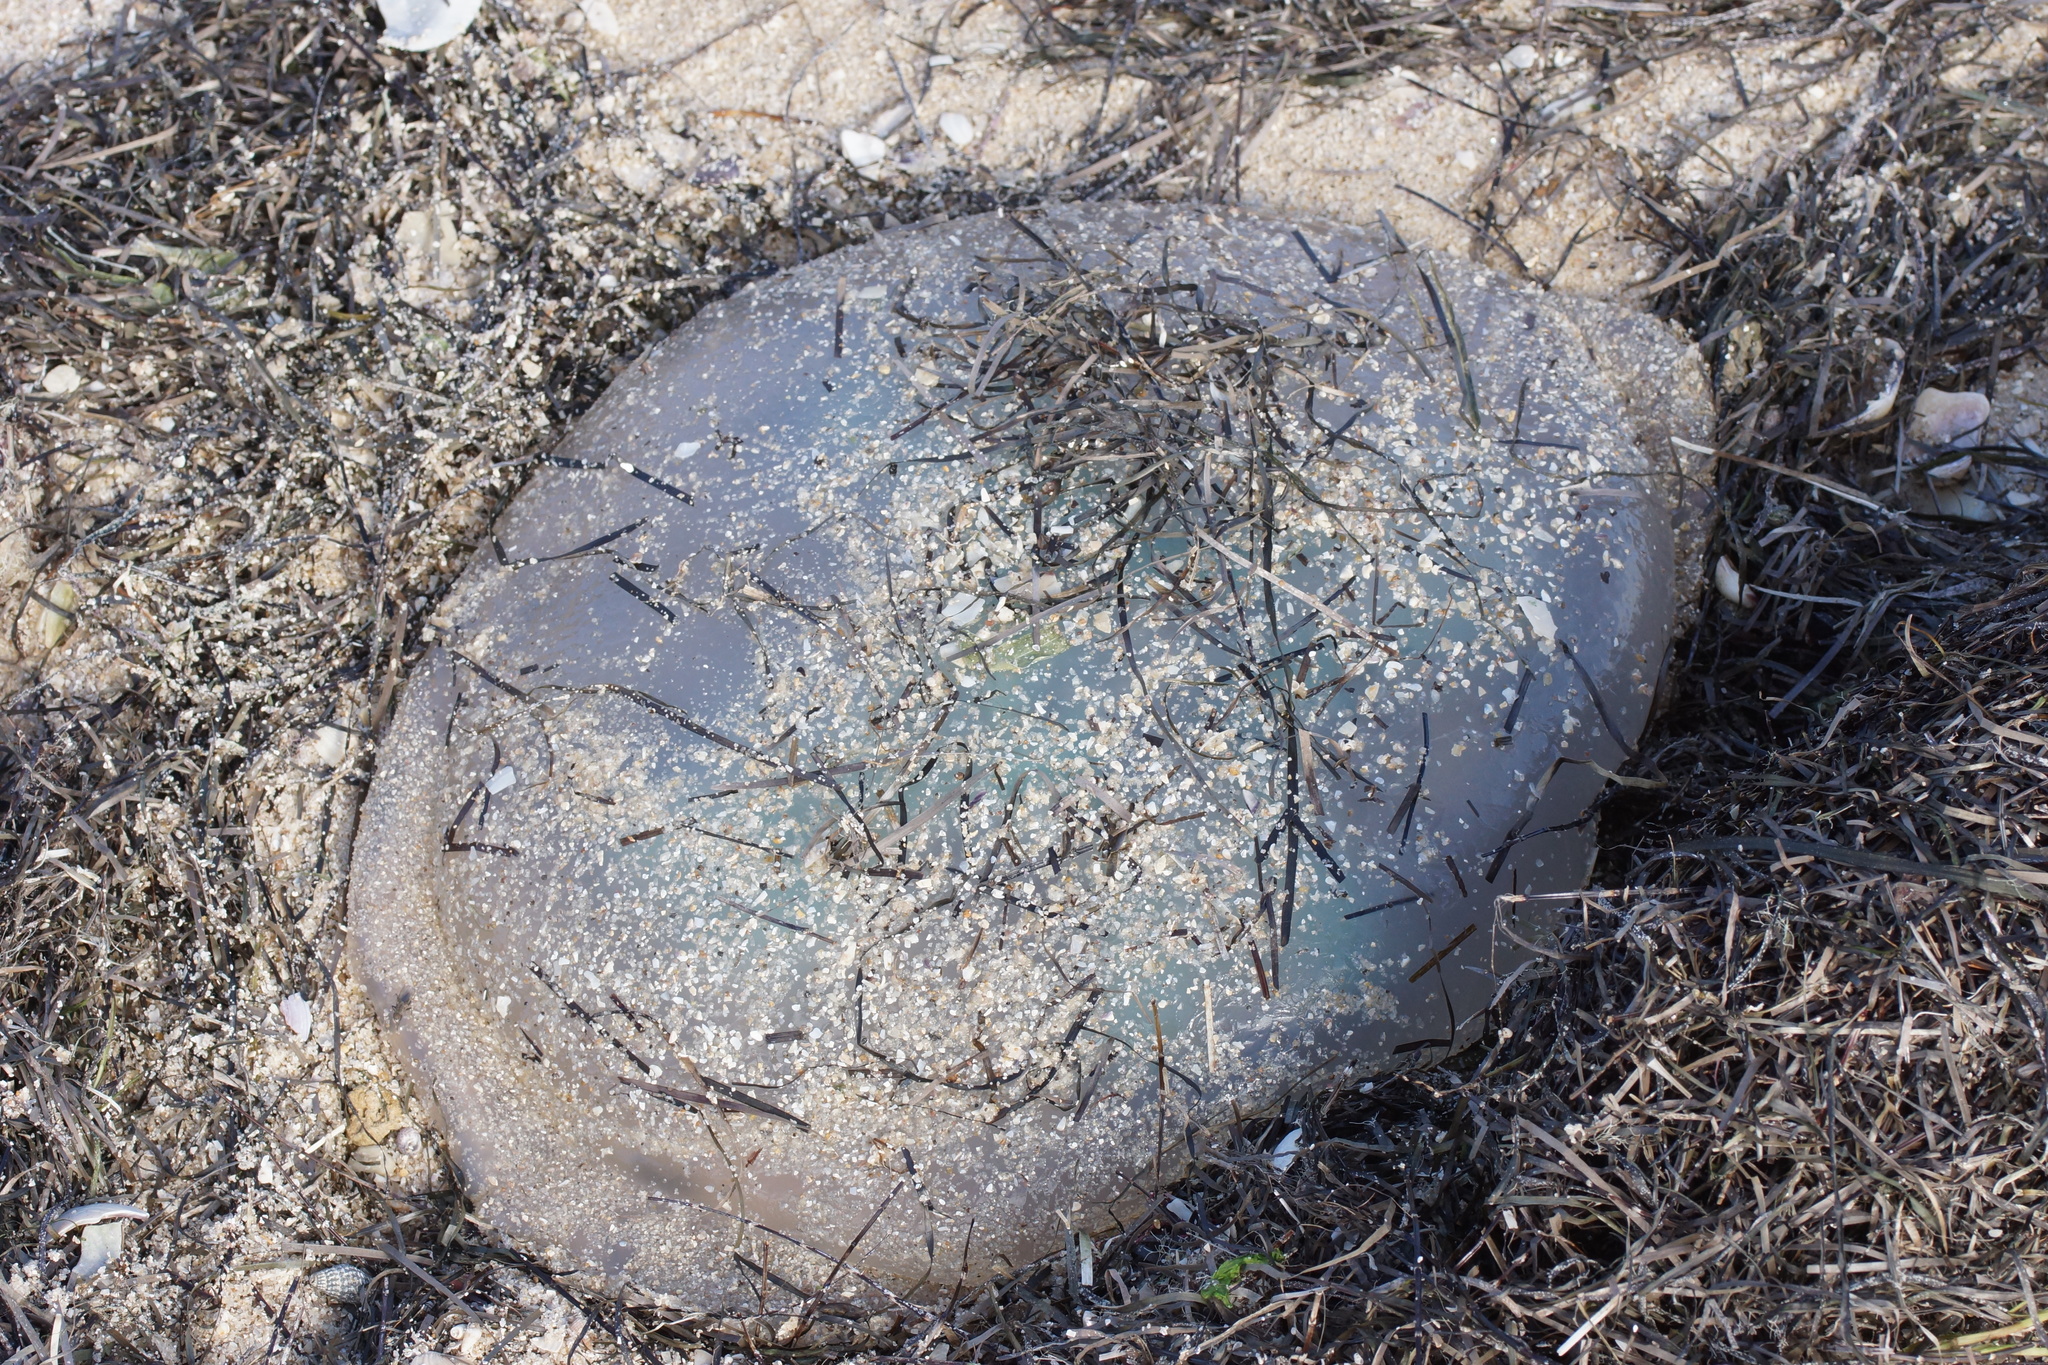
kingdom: Animalia
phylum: Cnidaria
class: Scyphozoa
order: Rhizostomeae
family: Catostylidae
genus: Catostylus
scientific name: Catostylus mosaicus
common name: Blue blubber
